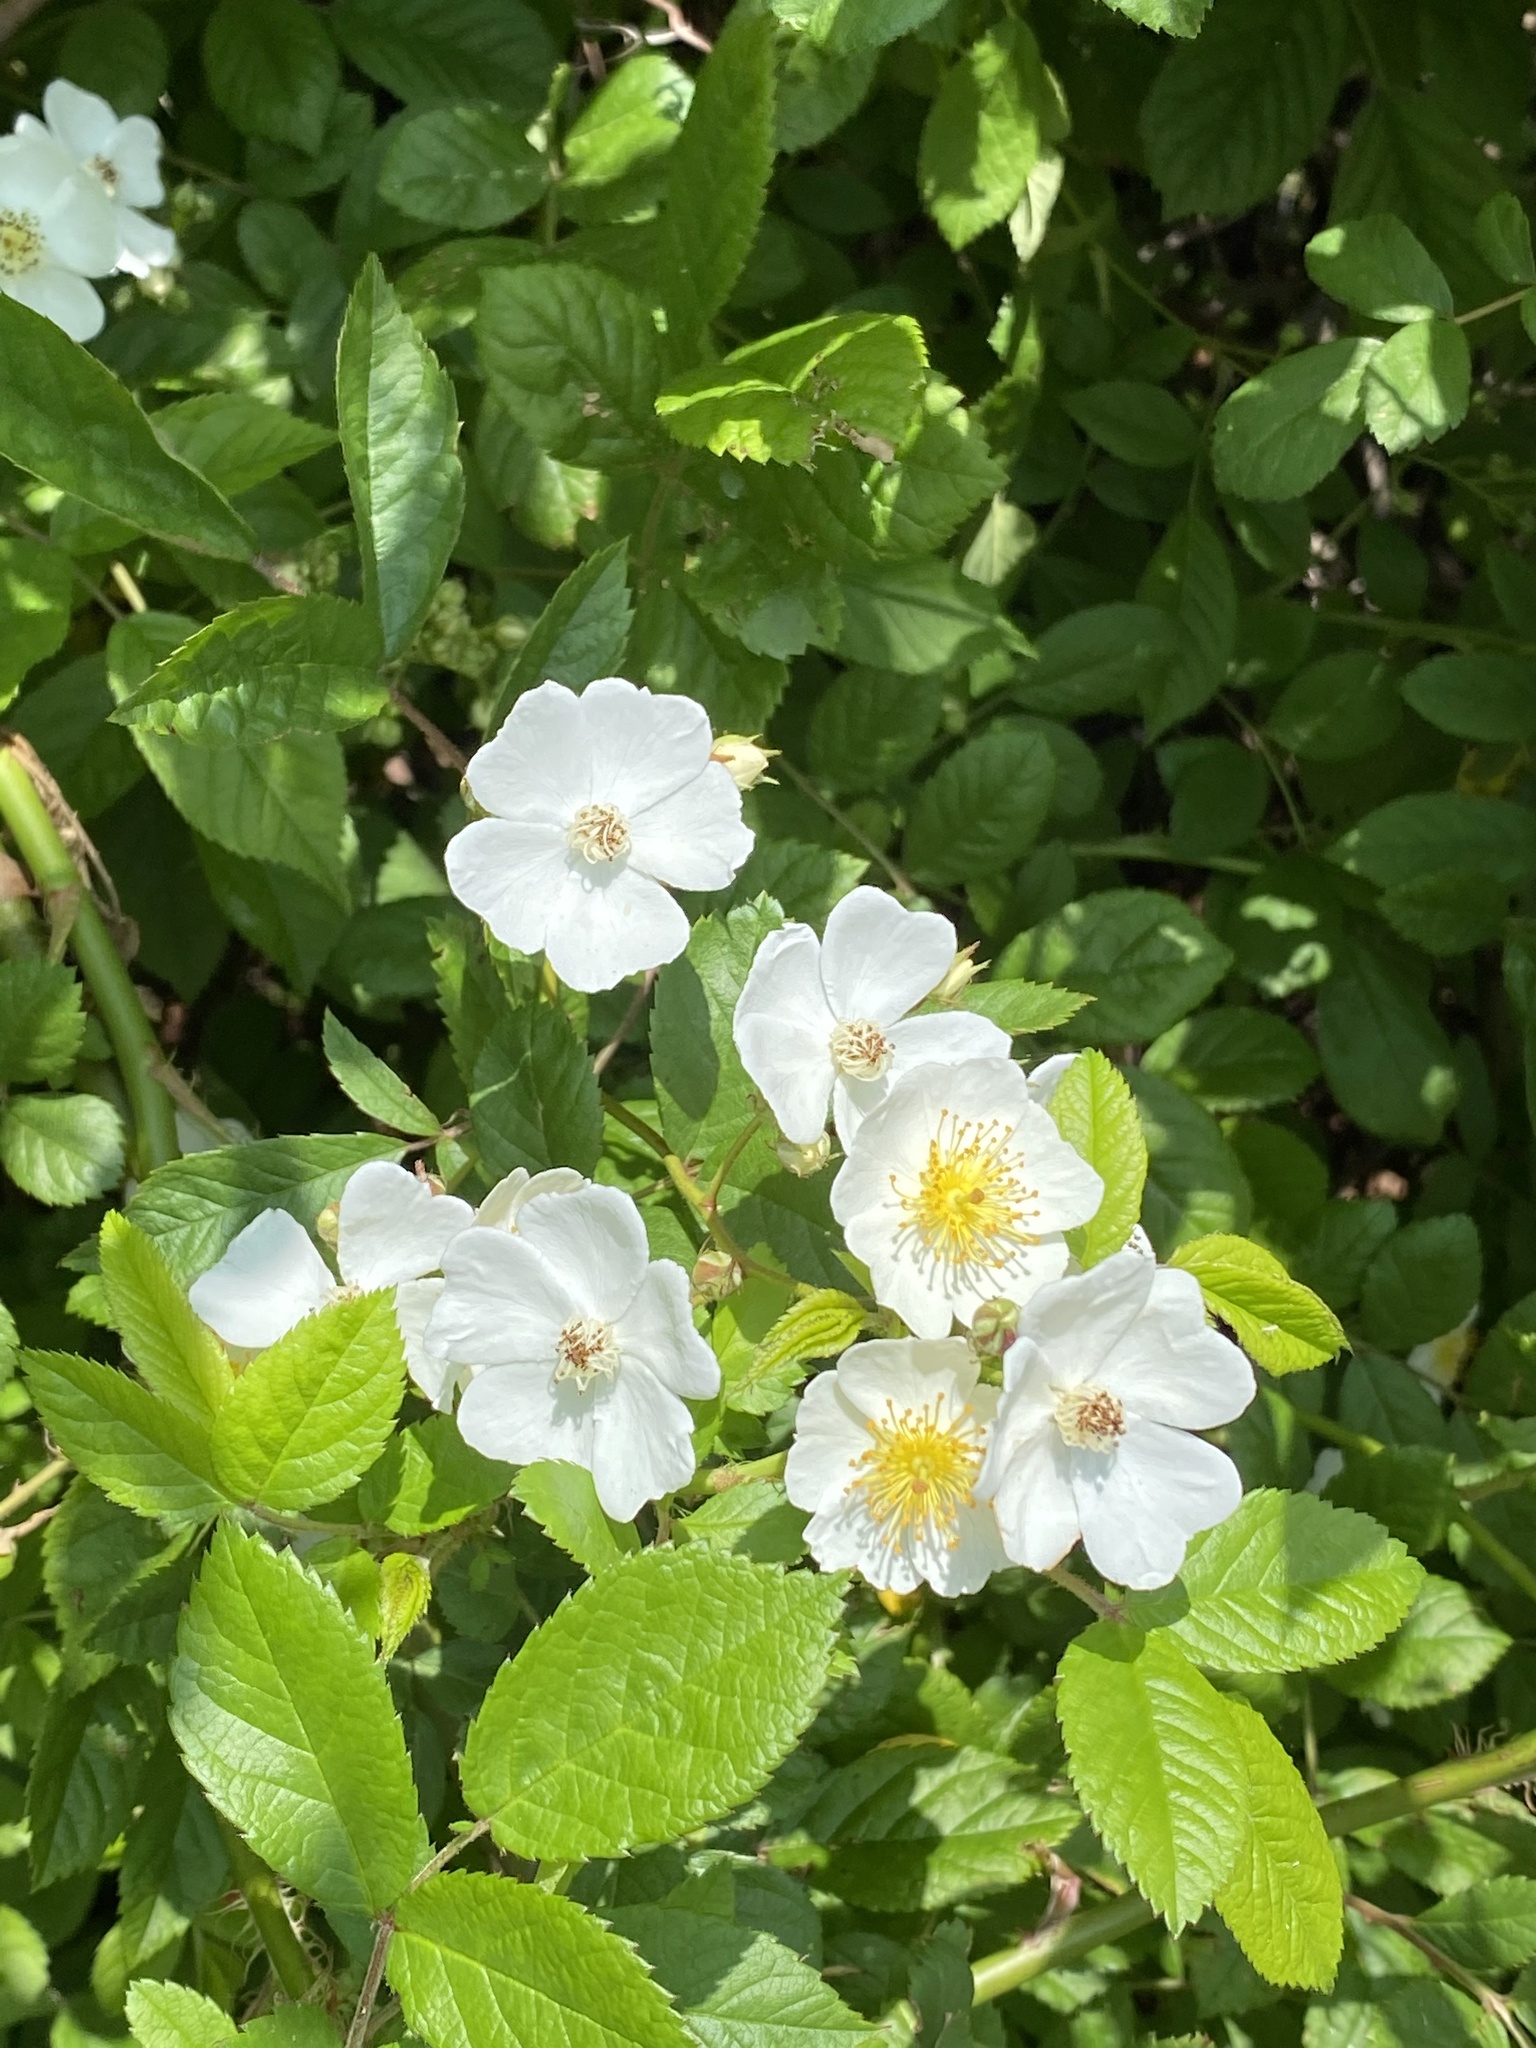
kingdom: Plantae
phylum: Tracheophyta
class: Magnoliopsida
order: Rosales
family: Rosaceae
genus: Rosa
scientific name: Rosa multiflora
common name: Multiflora rose
